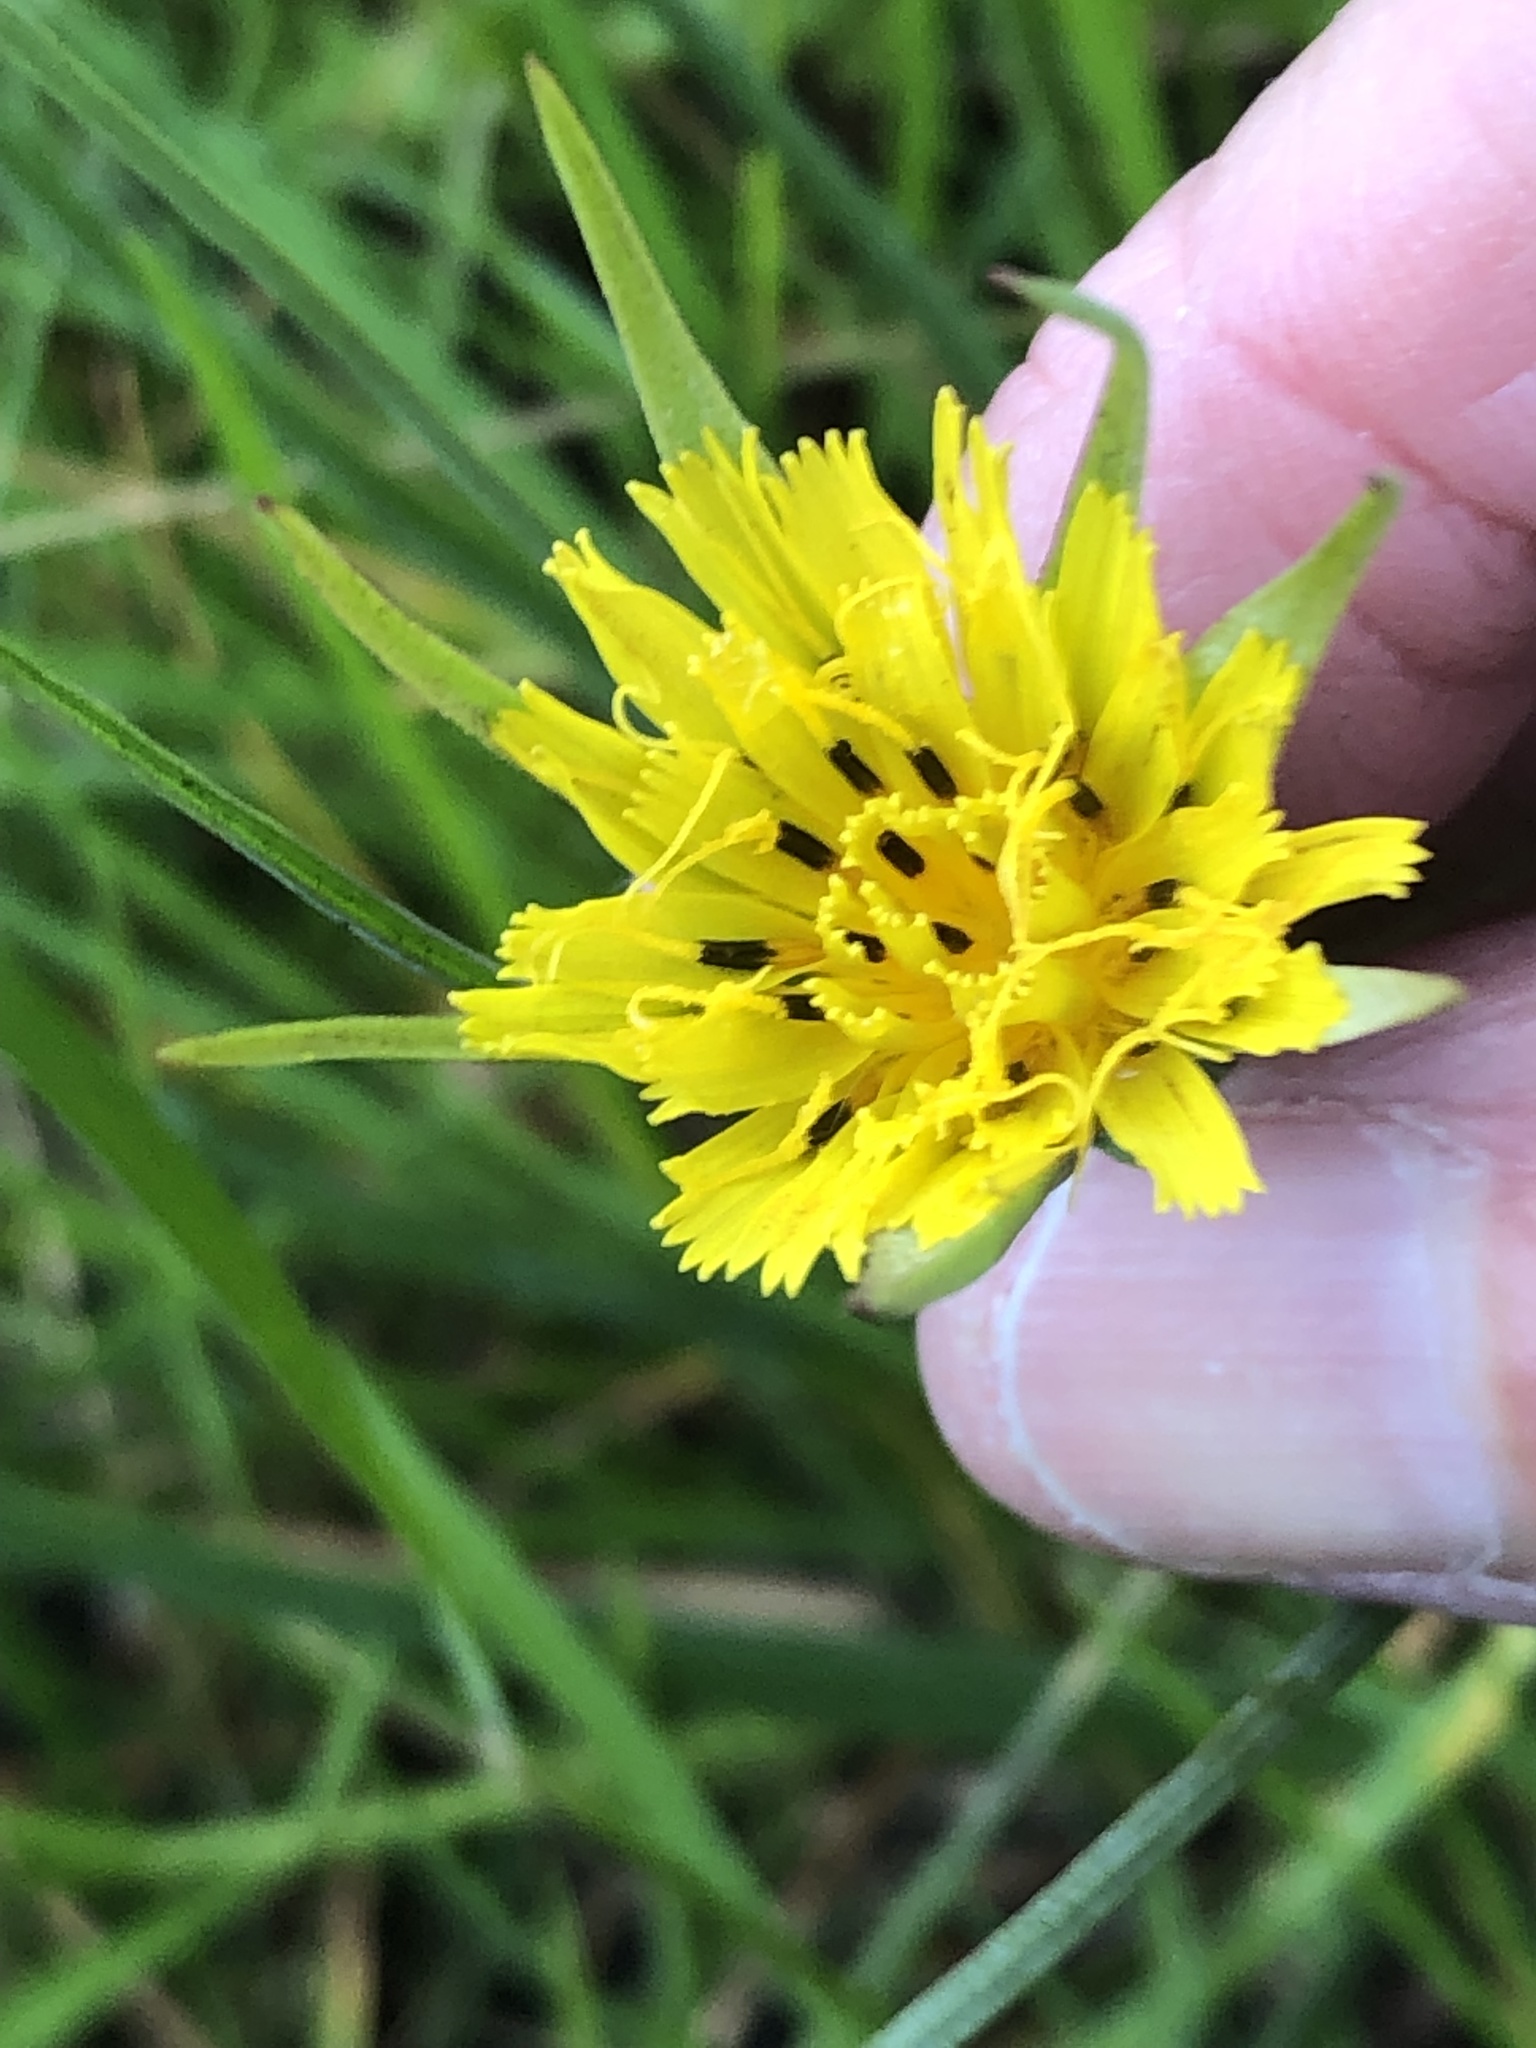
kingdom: Plantae
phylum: Tracheophyta
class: Magnoliopsida
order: Asterales
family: Asteraceae
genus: Tragopogon
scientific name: Tragopogon minor
